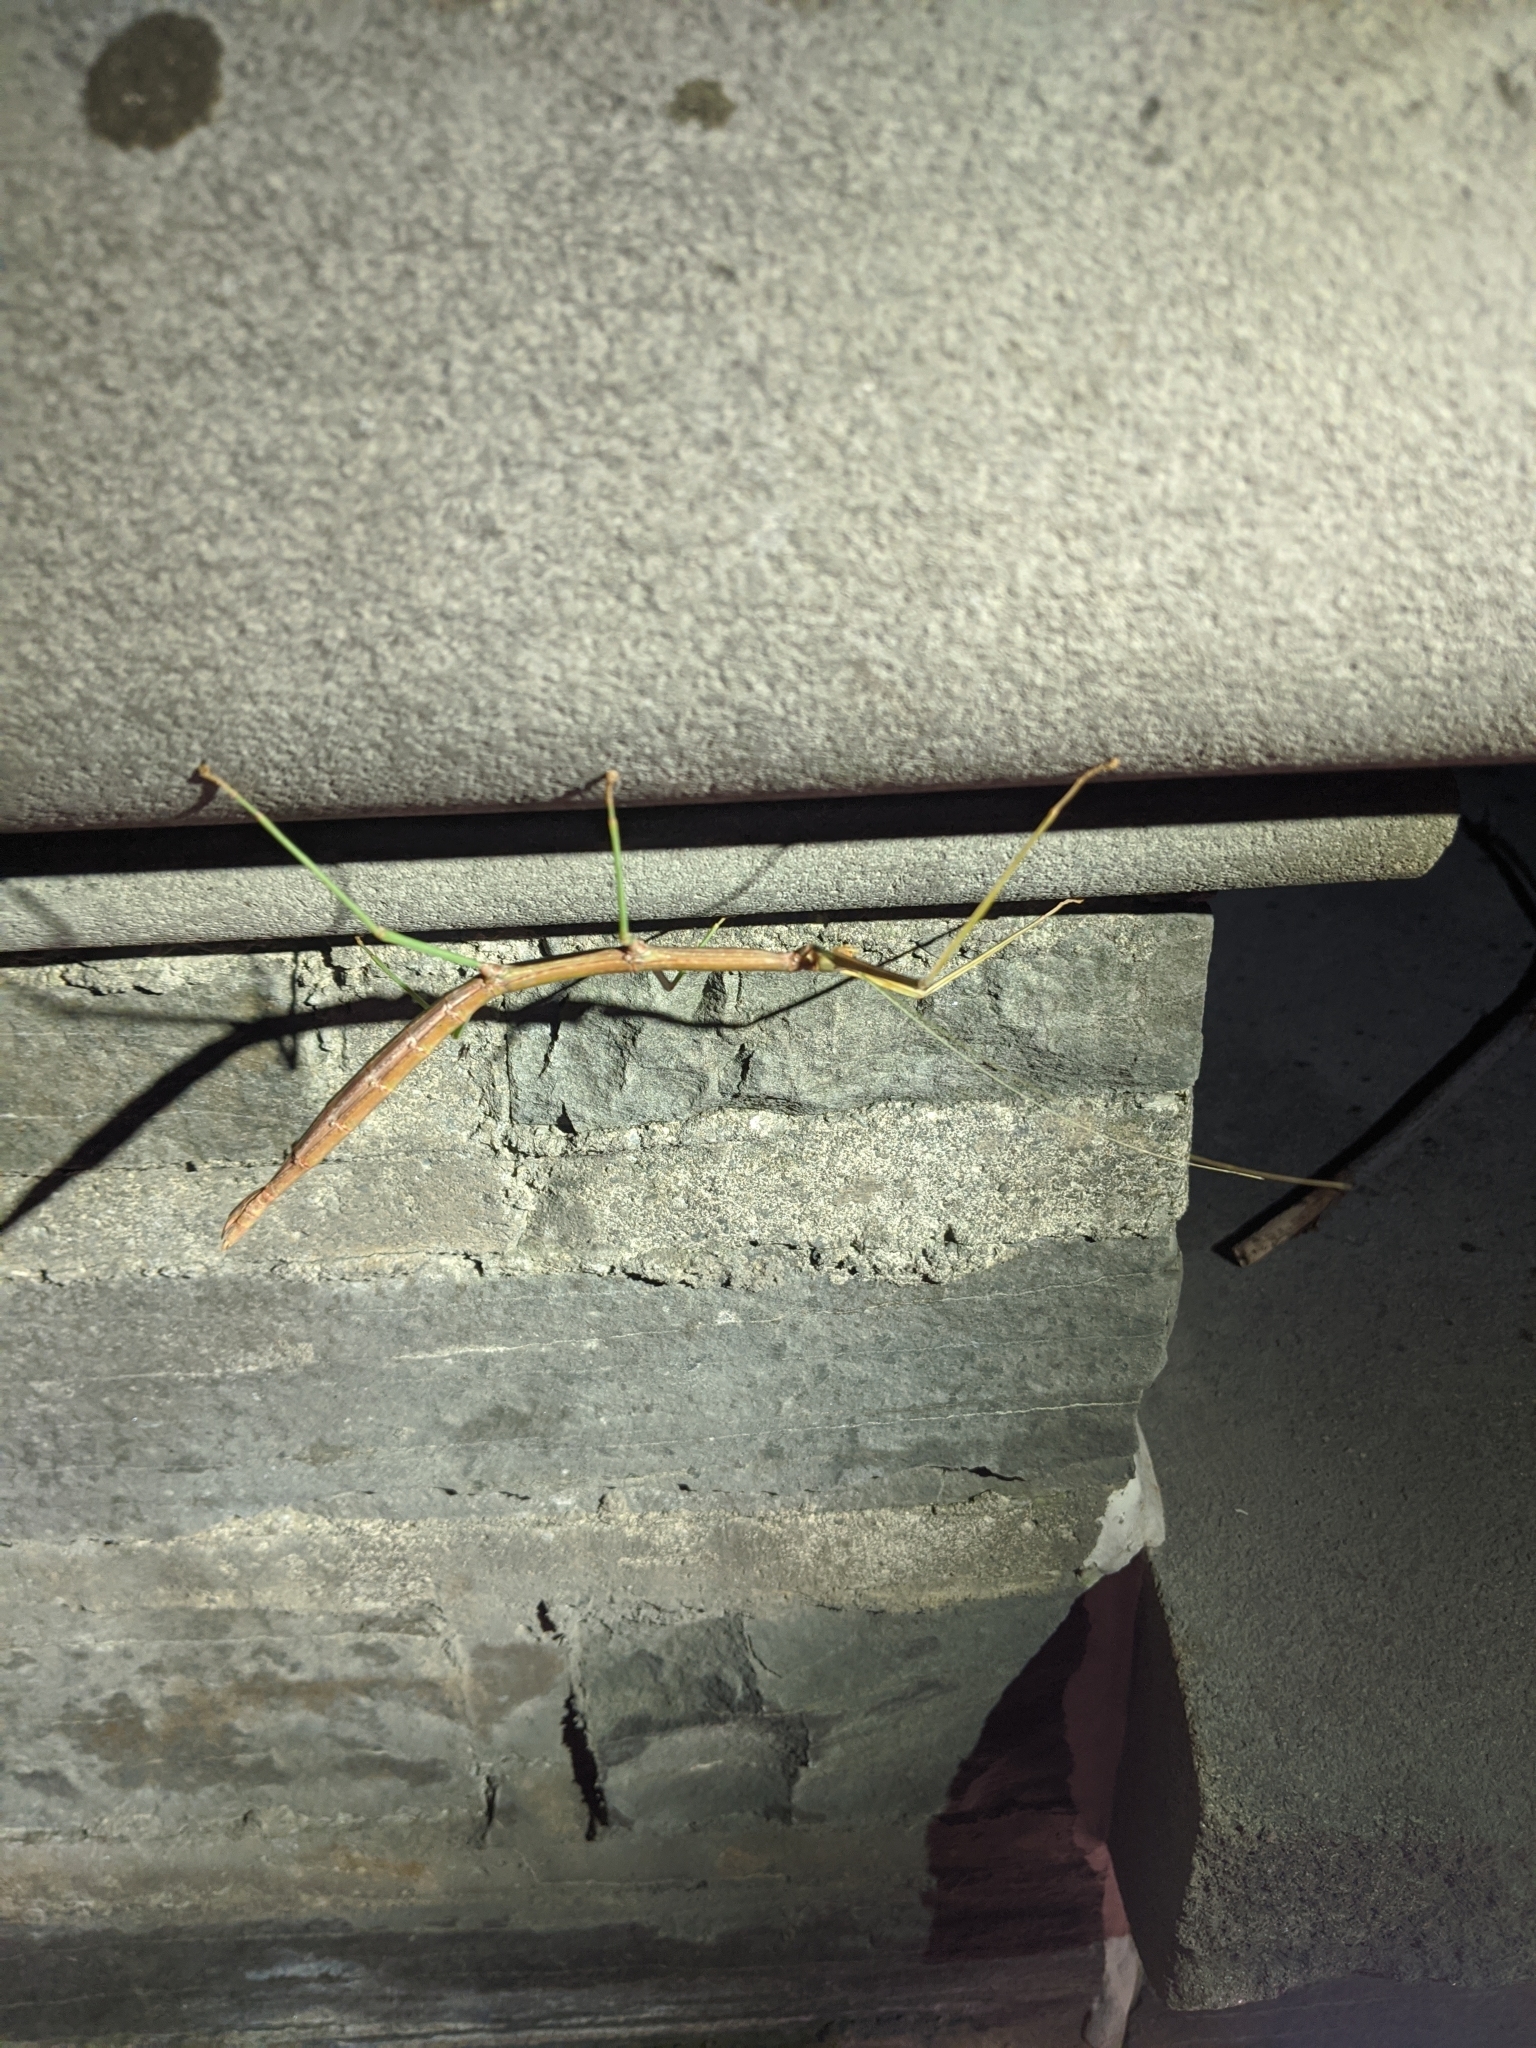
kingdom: Animalia
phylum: Arthropoda
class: Insecta
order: Phasmida
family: Diapheromeridae
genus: Diapheromera
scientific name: Diapheromera femorata
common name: Common american walkingstick
